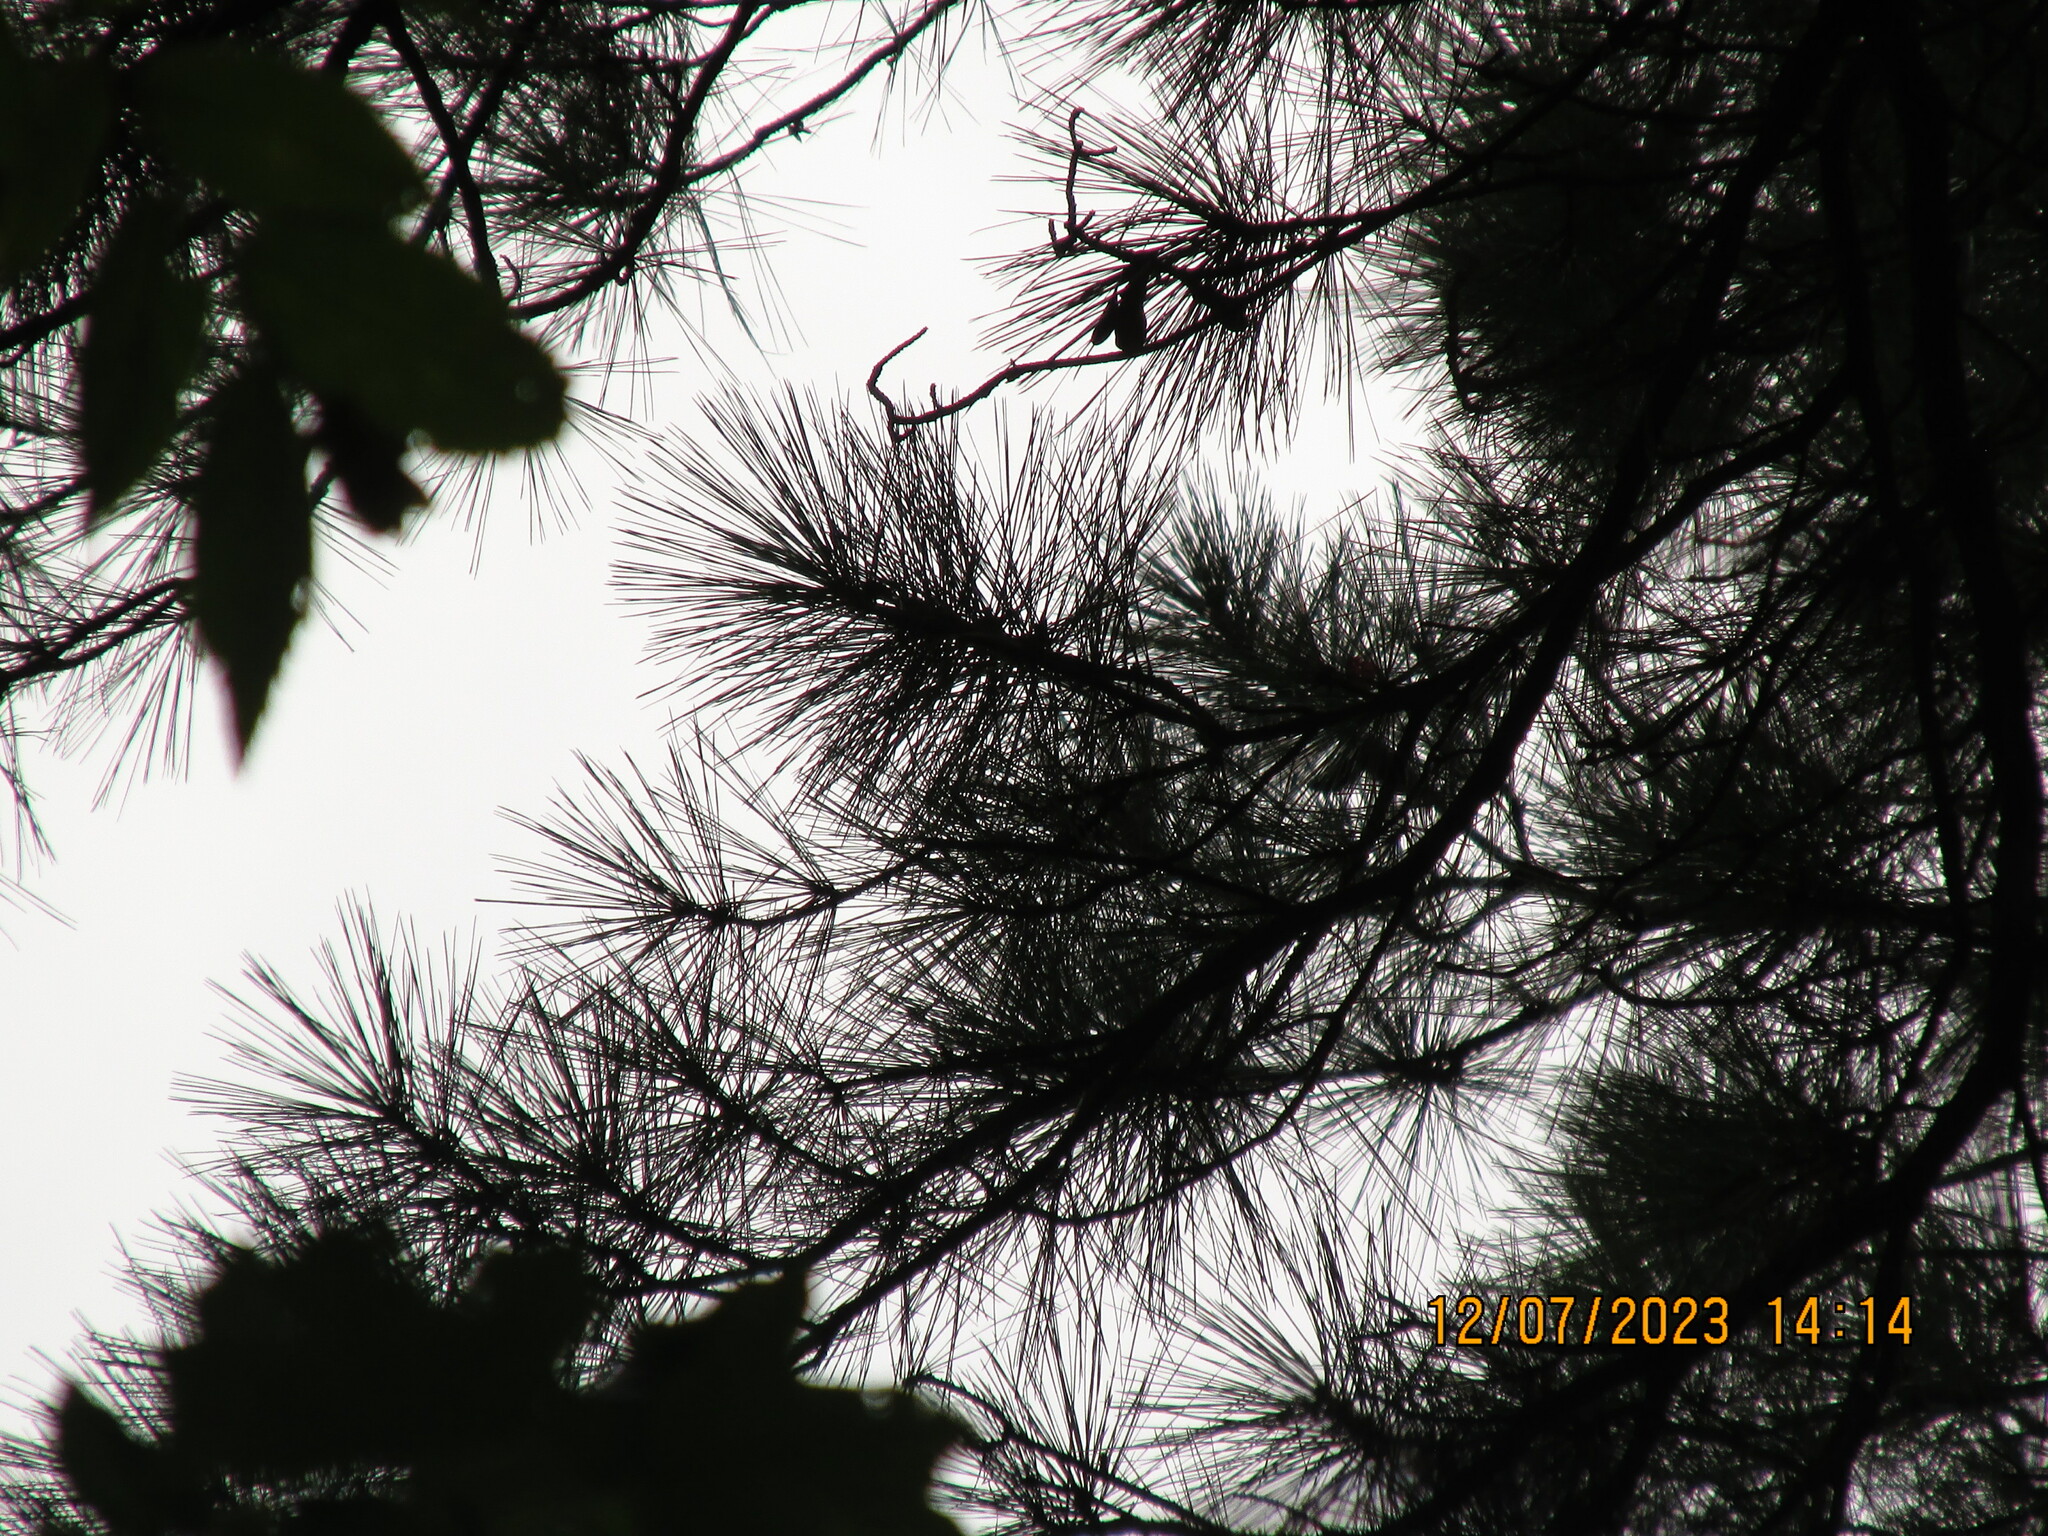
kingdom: Plantae
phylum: Tracheophyta
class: Pinopsida
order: Pinales
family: Pinaceae
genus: Pinus
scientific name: Pinus taeda
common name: Loblolly pine
